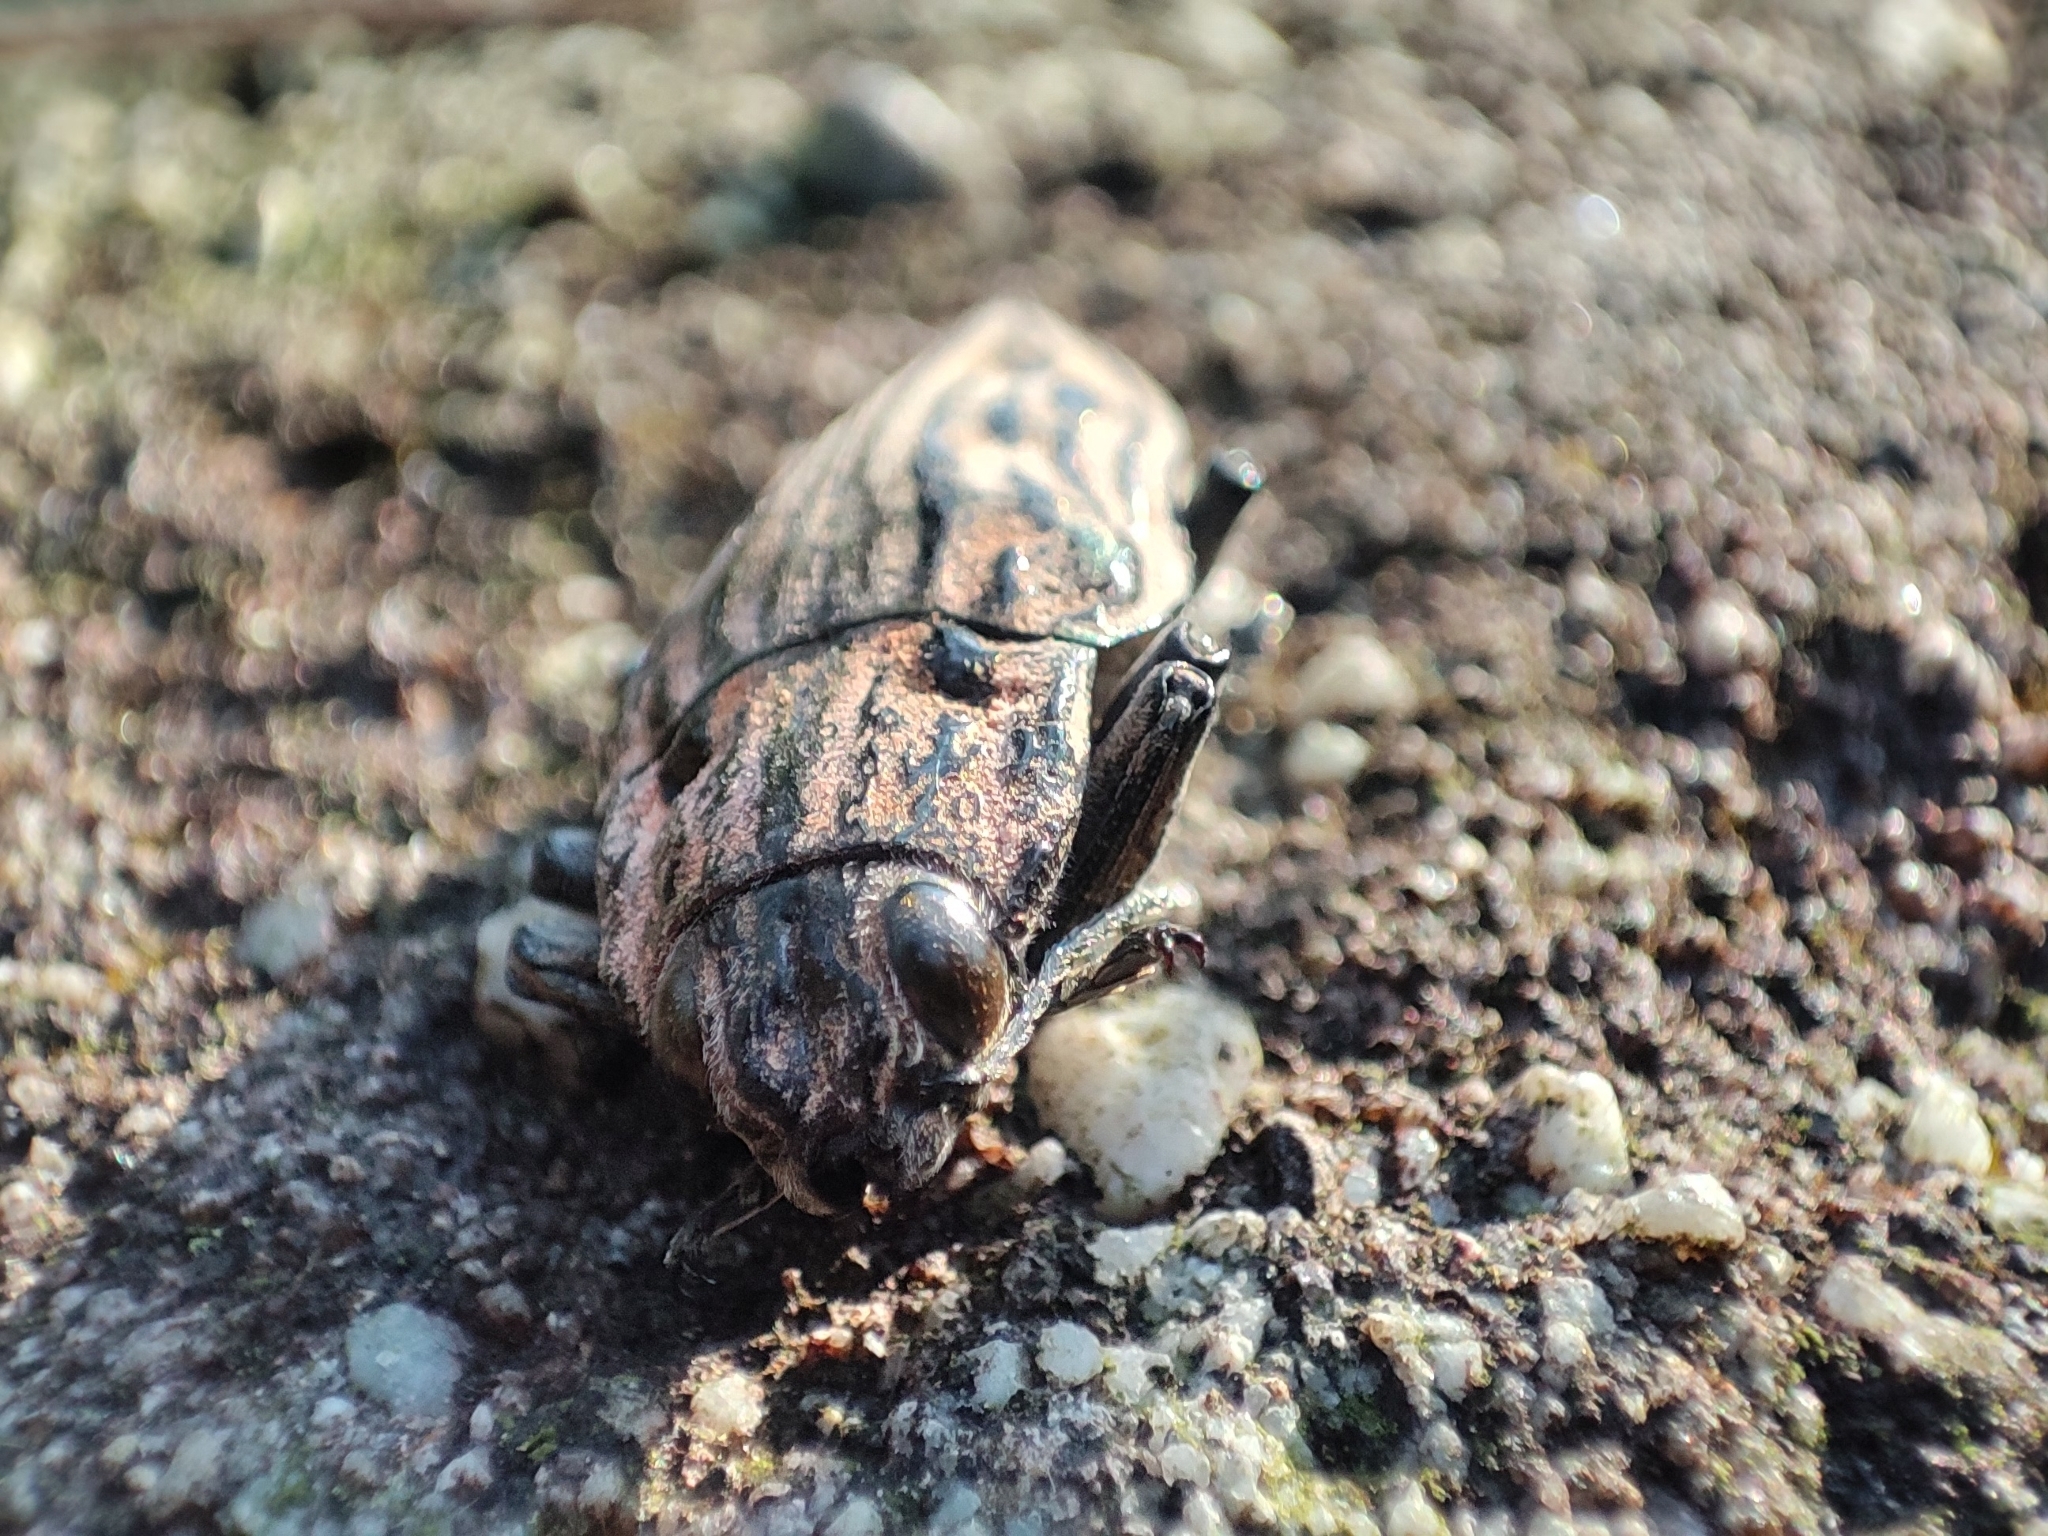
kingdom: Animalia
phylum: Arthropoda
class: Insecta
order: Coleoptera
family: Buprestidae
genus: Chalcophora
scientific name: Chalcophora japonica
